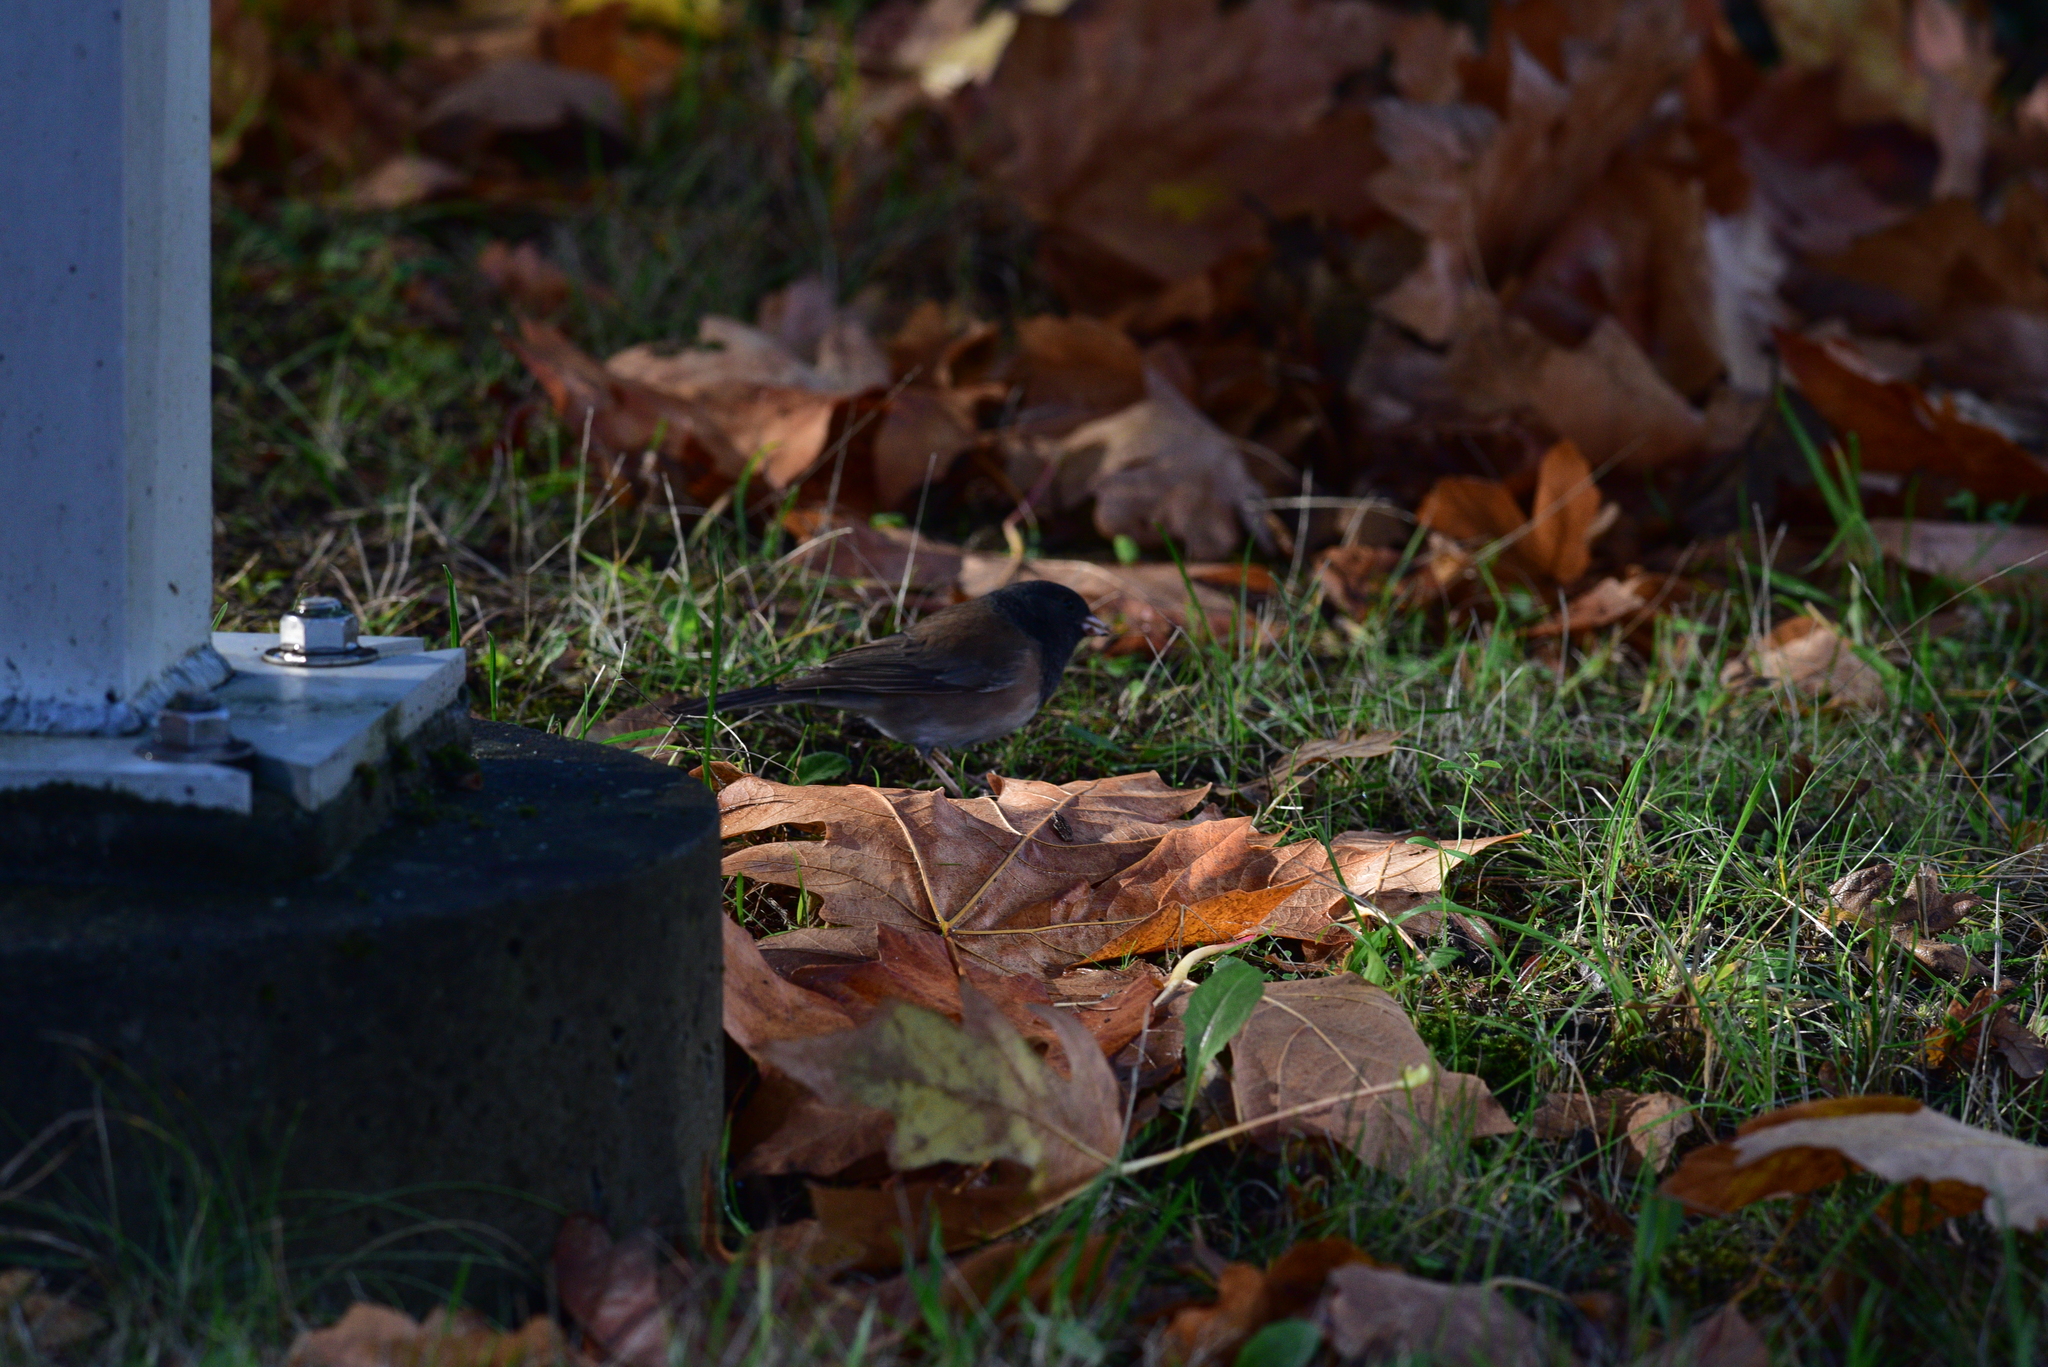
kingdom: Animalia
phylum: Chordata
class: Aves
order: Passeriformes
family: Passerellidae
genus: Junco
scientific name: Junco hyemalis
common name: Dark-eyed junco
